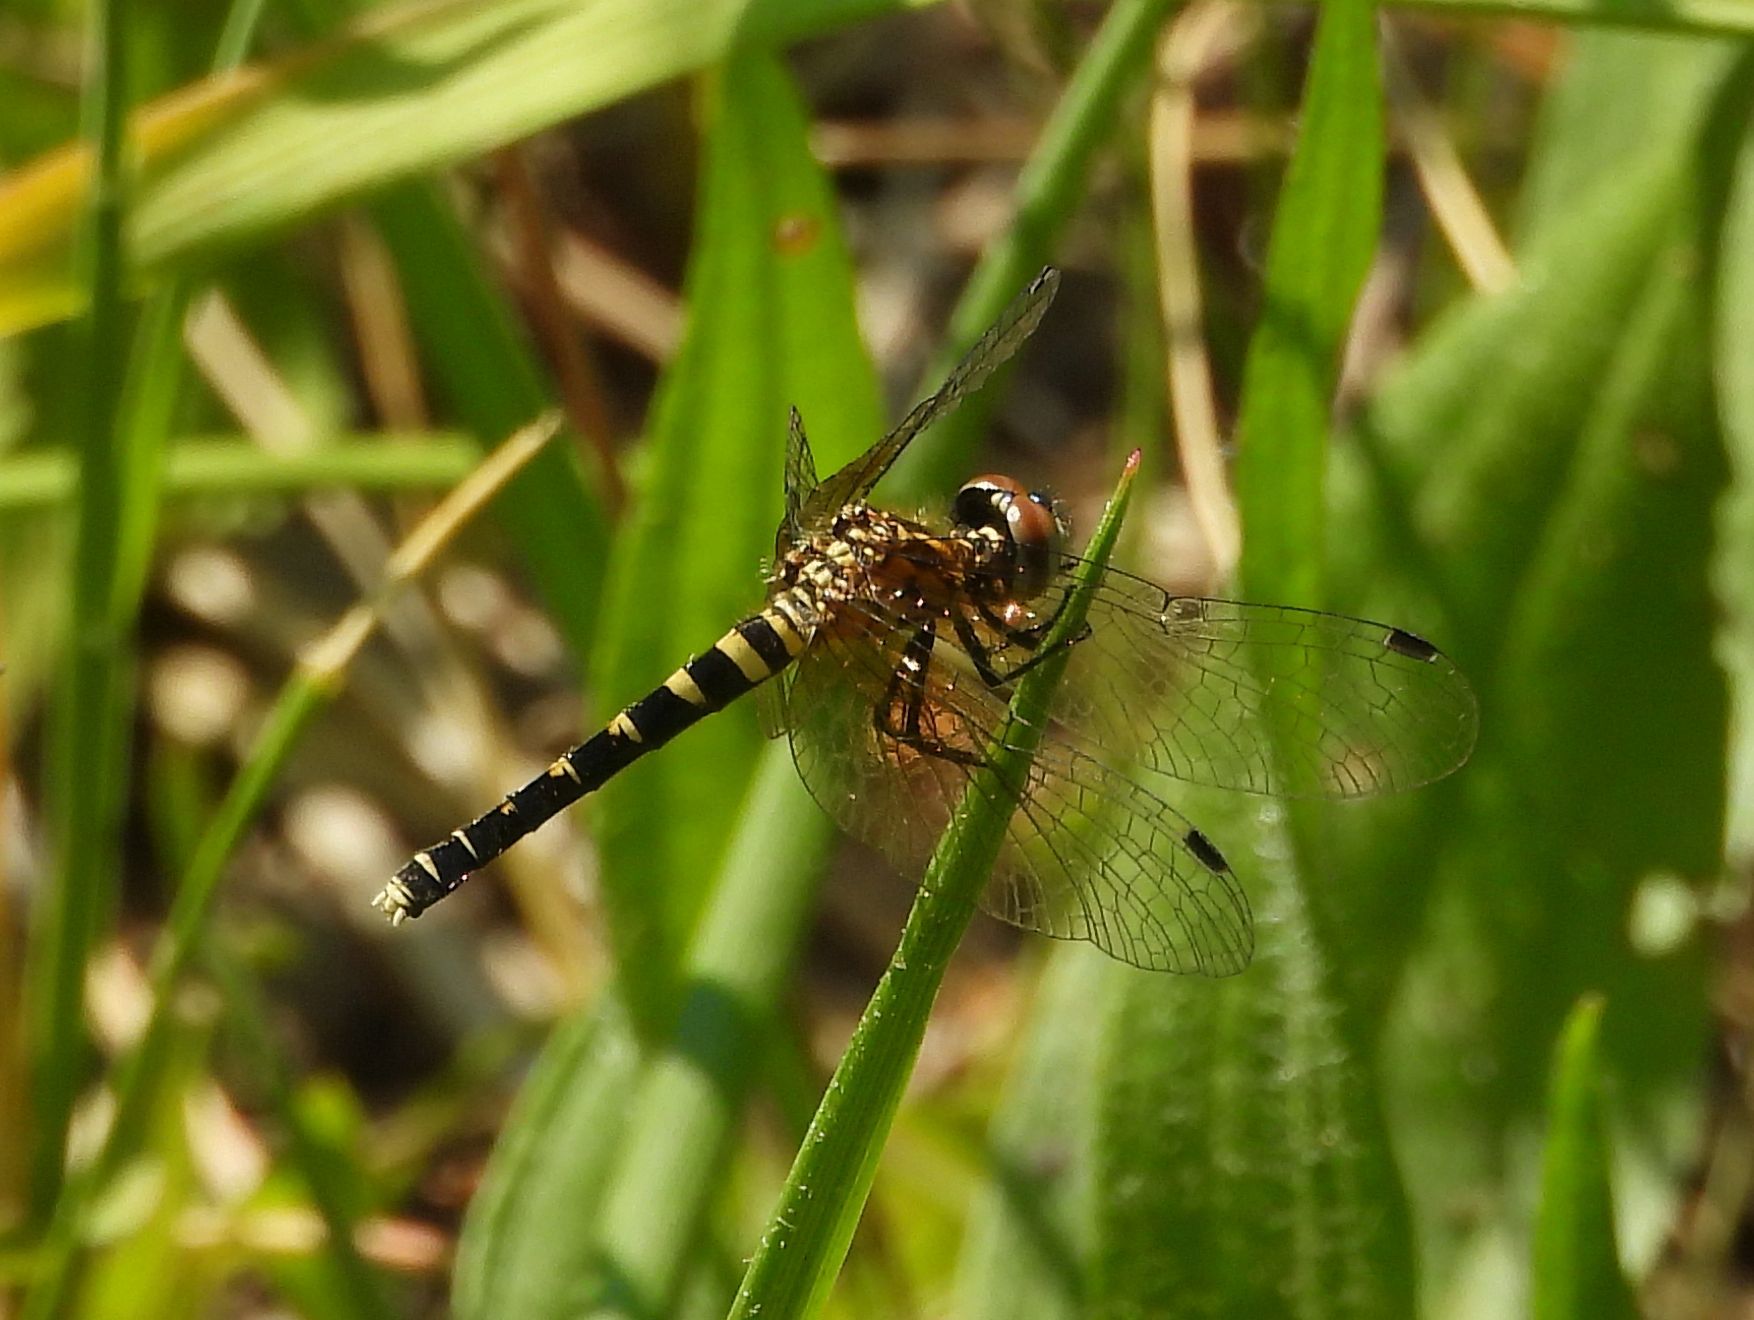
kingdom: Animalia
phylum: Arthropoda
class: Insecta
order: Odonata
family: Libellulidae
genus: Nannothemis
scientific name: Nannothemis bella
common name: Elfin skimmer
